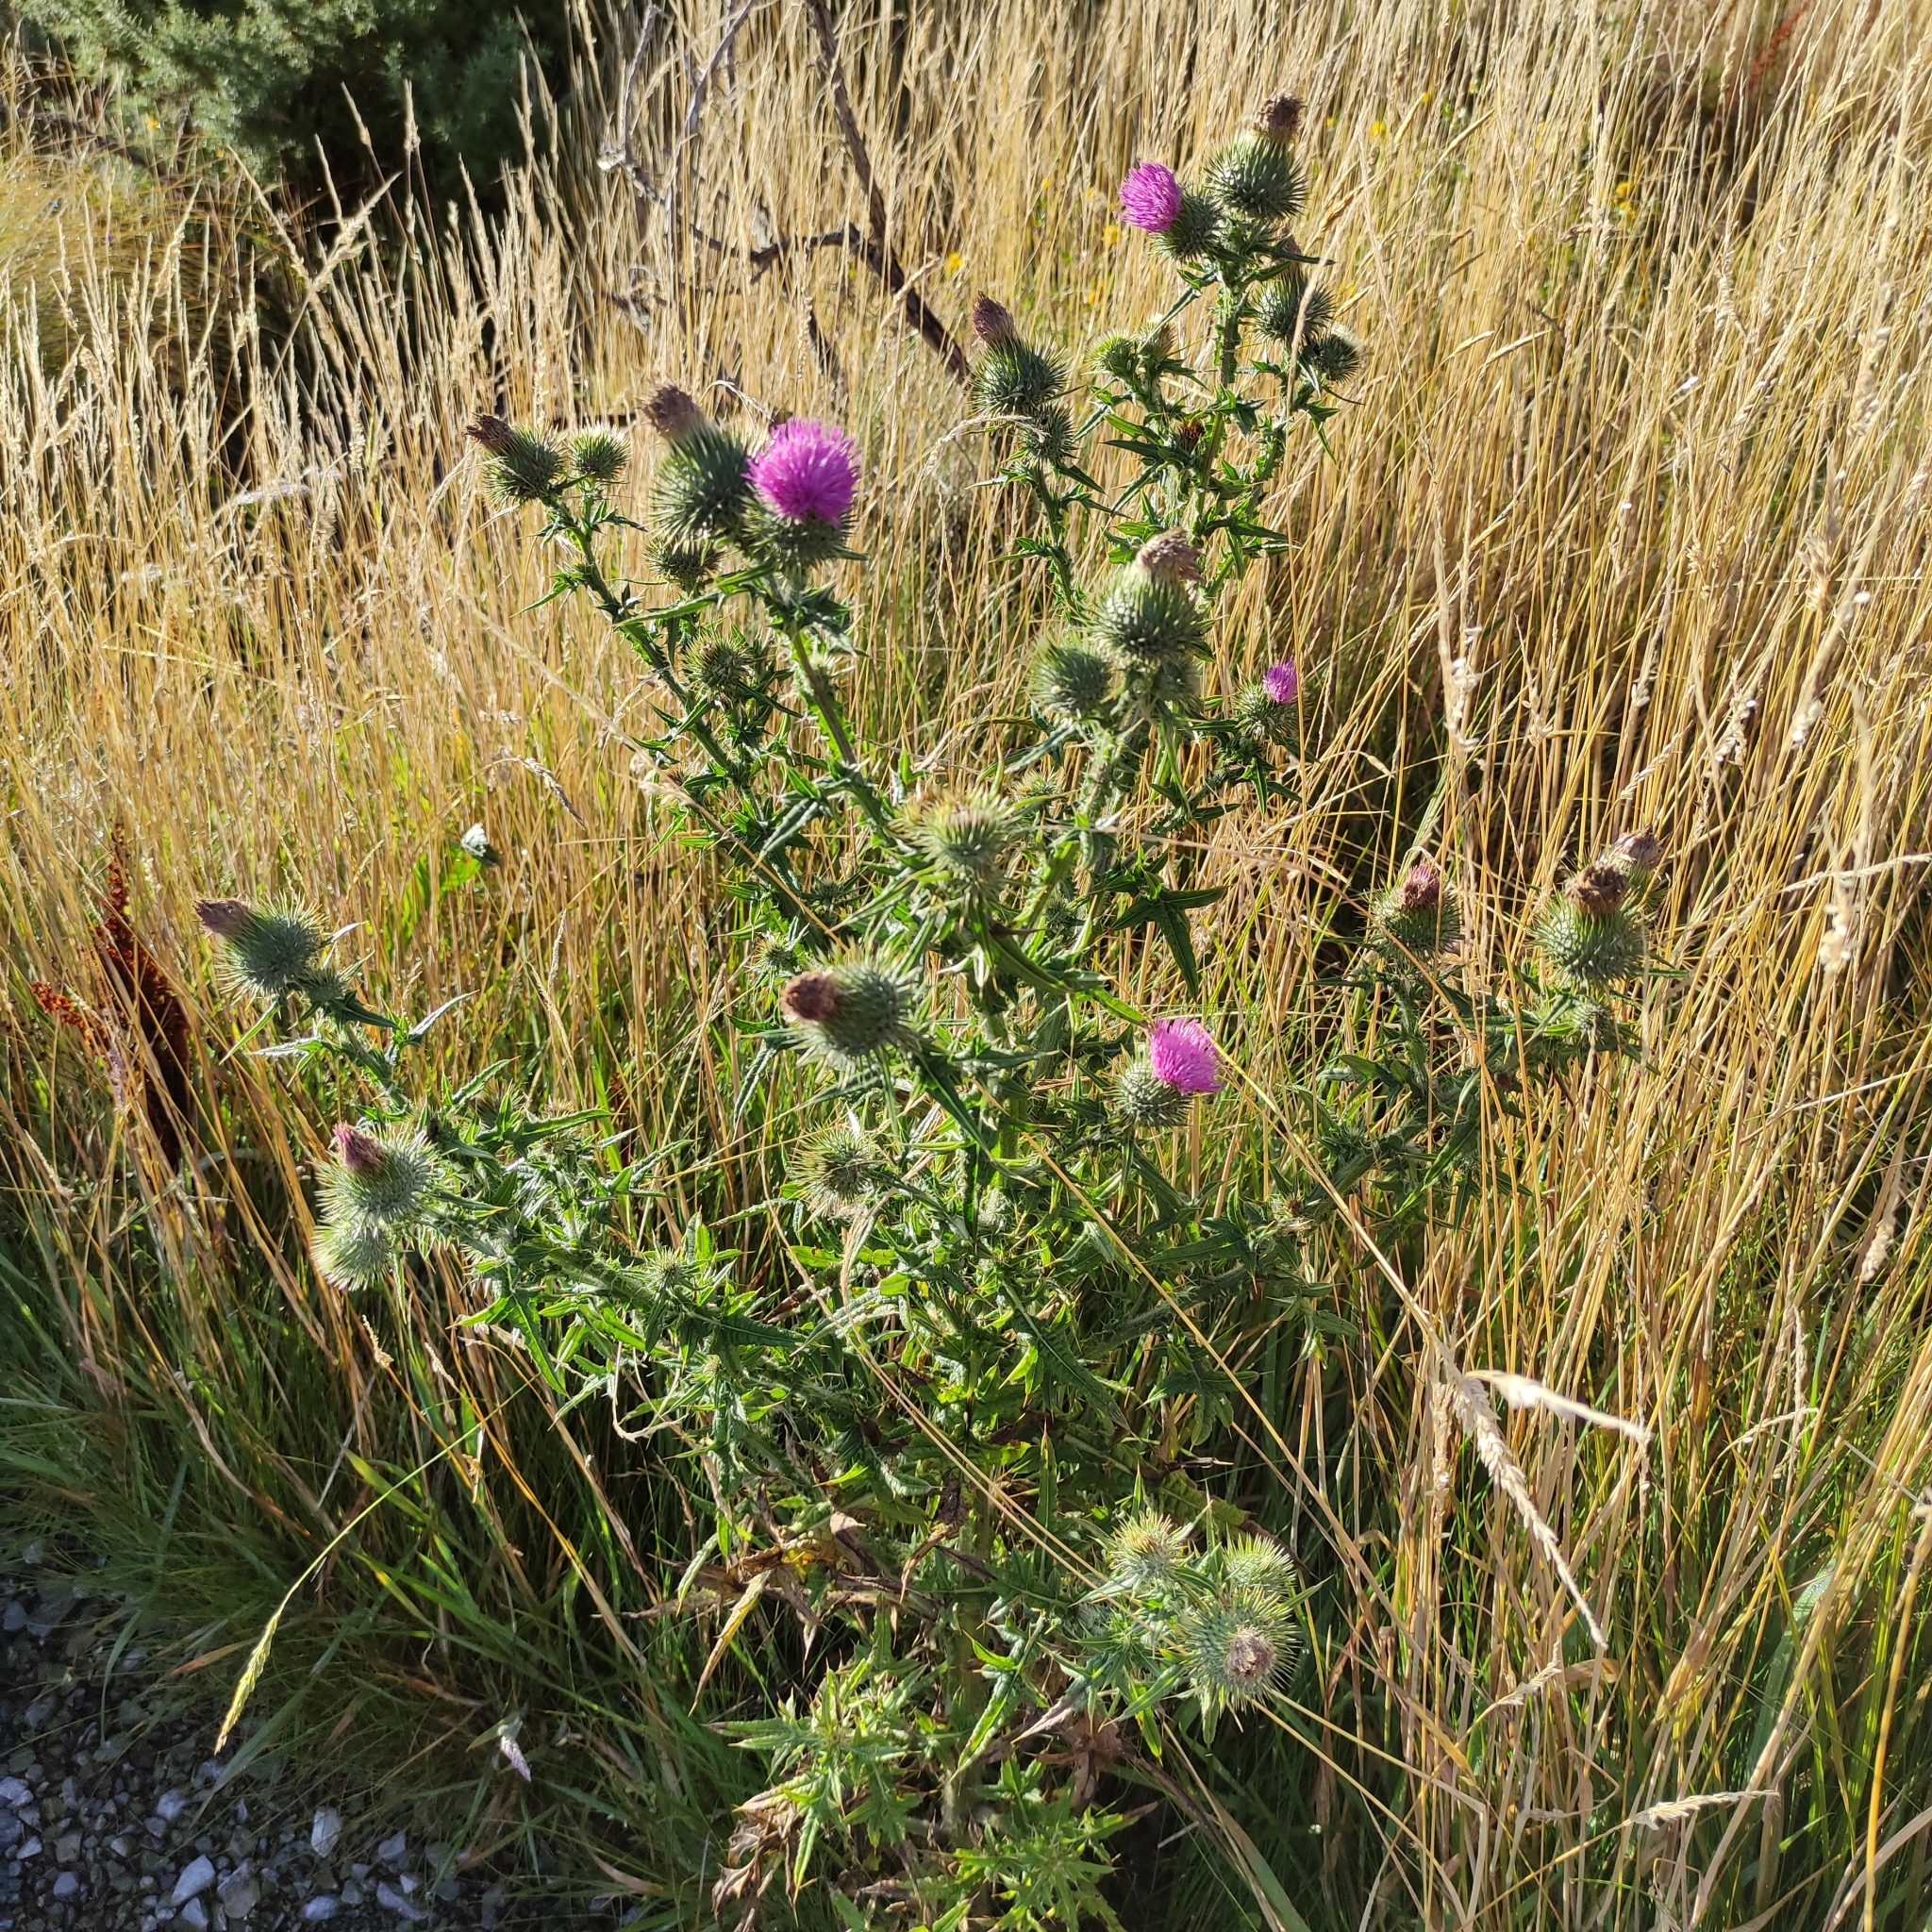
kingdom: Plantae
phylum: Tracheophyta
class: Magnoliopsida
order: Asterales
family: Asteraceae
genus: Cirsium
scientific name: Cirsium vulgare
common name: Bull thistle
